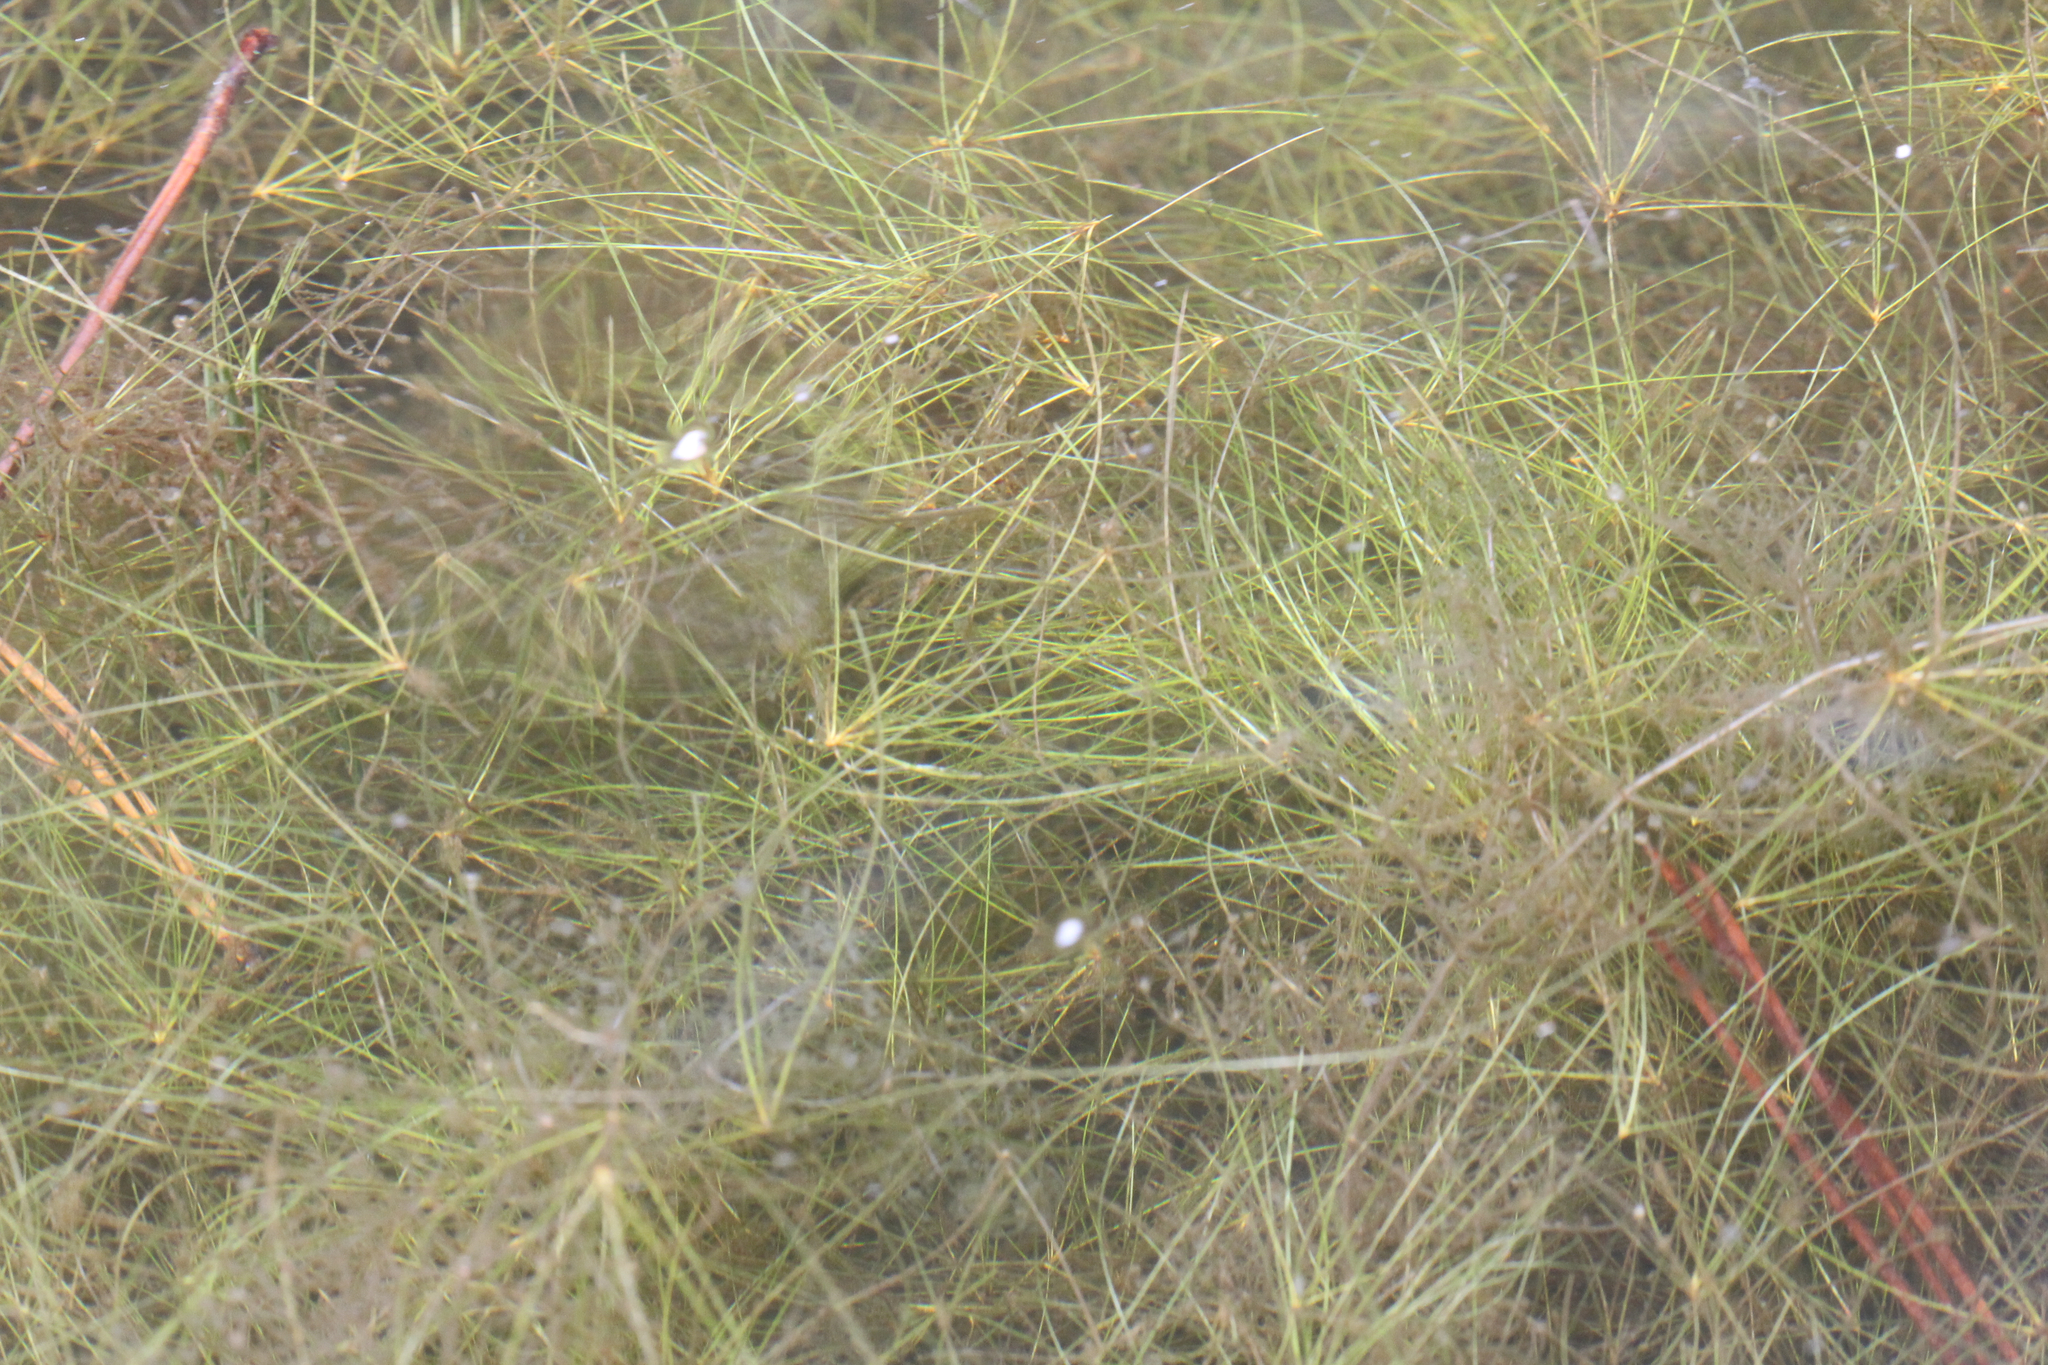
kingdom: Plantae
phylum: Tracheophyta
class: Liliopsida
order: Poales
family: Cyperaceae
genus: Eleocharis
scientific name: Eleocharis vivipara
